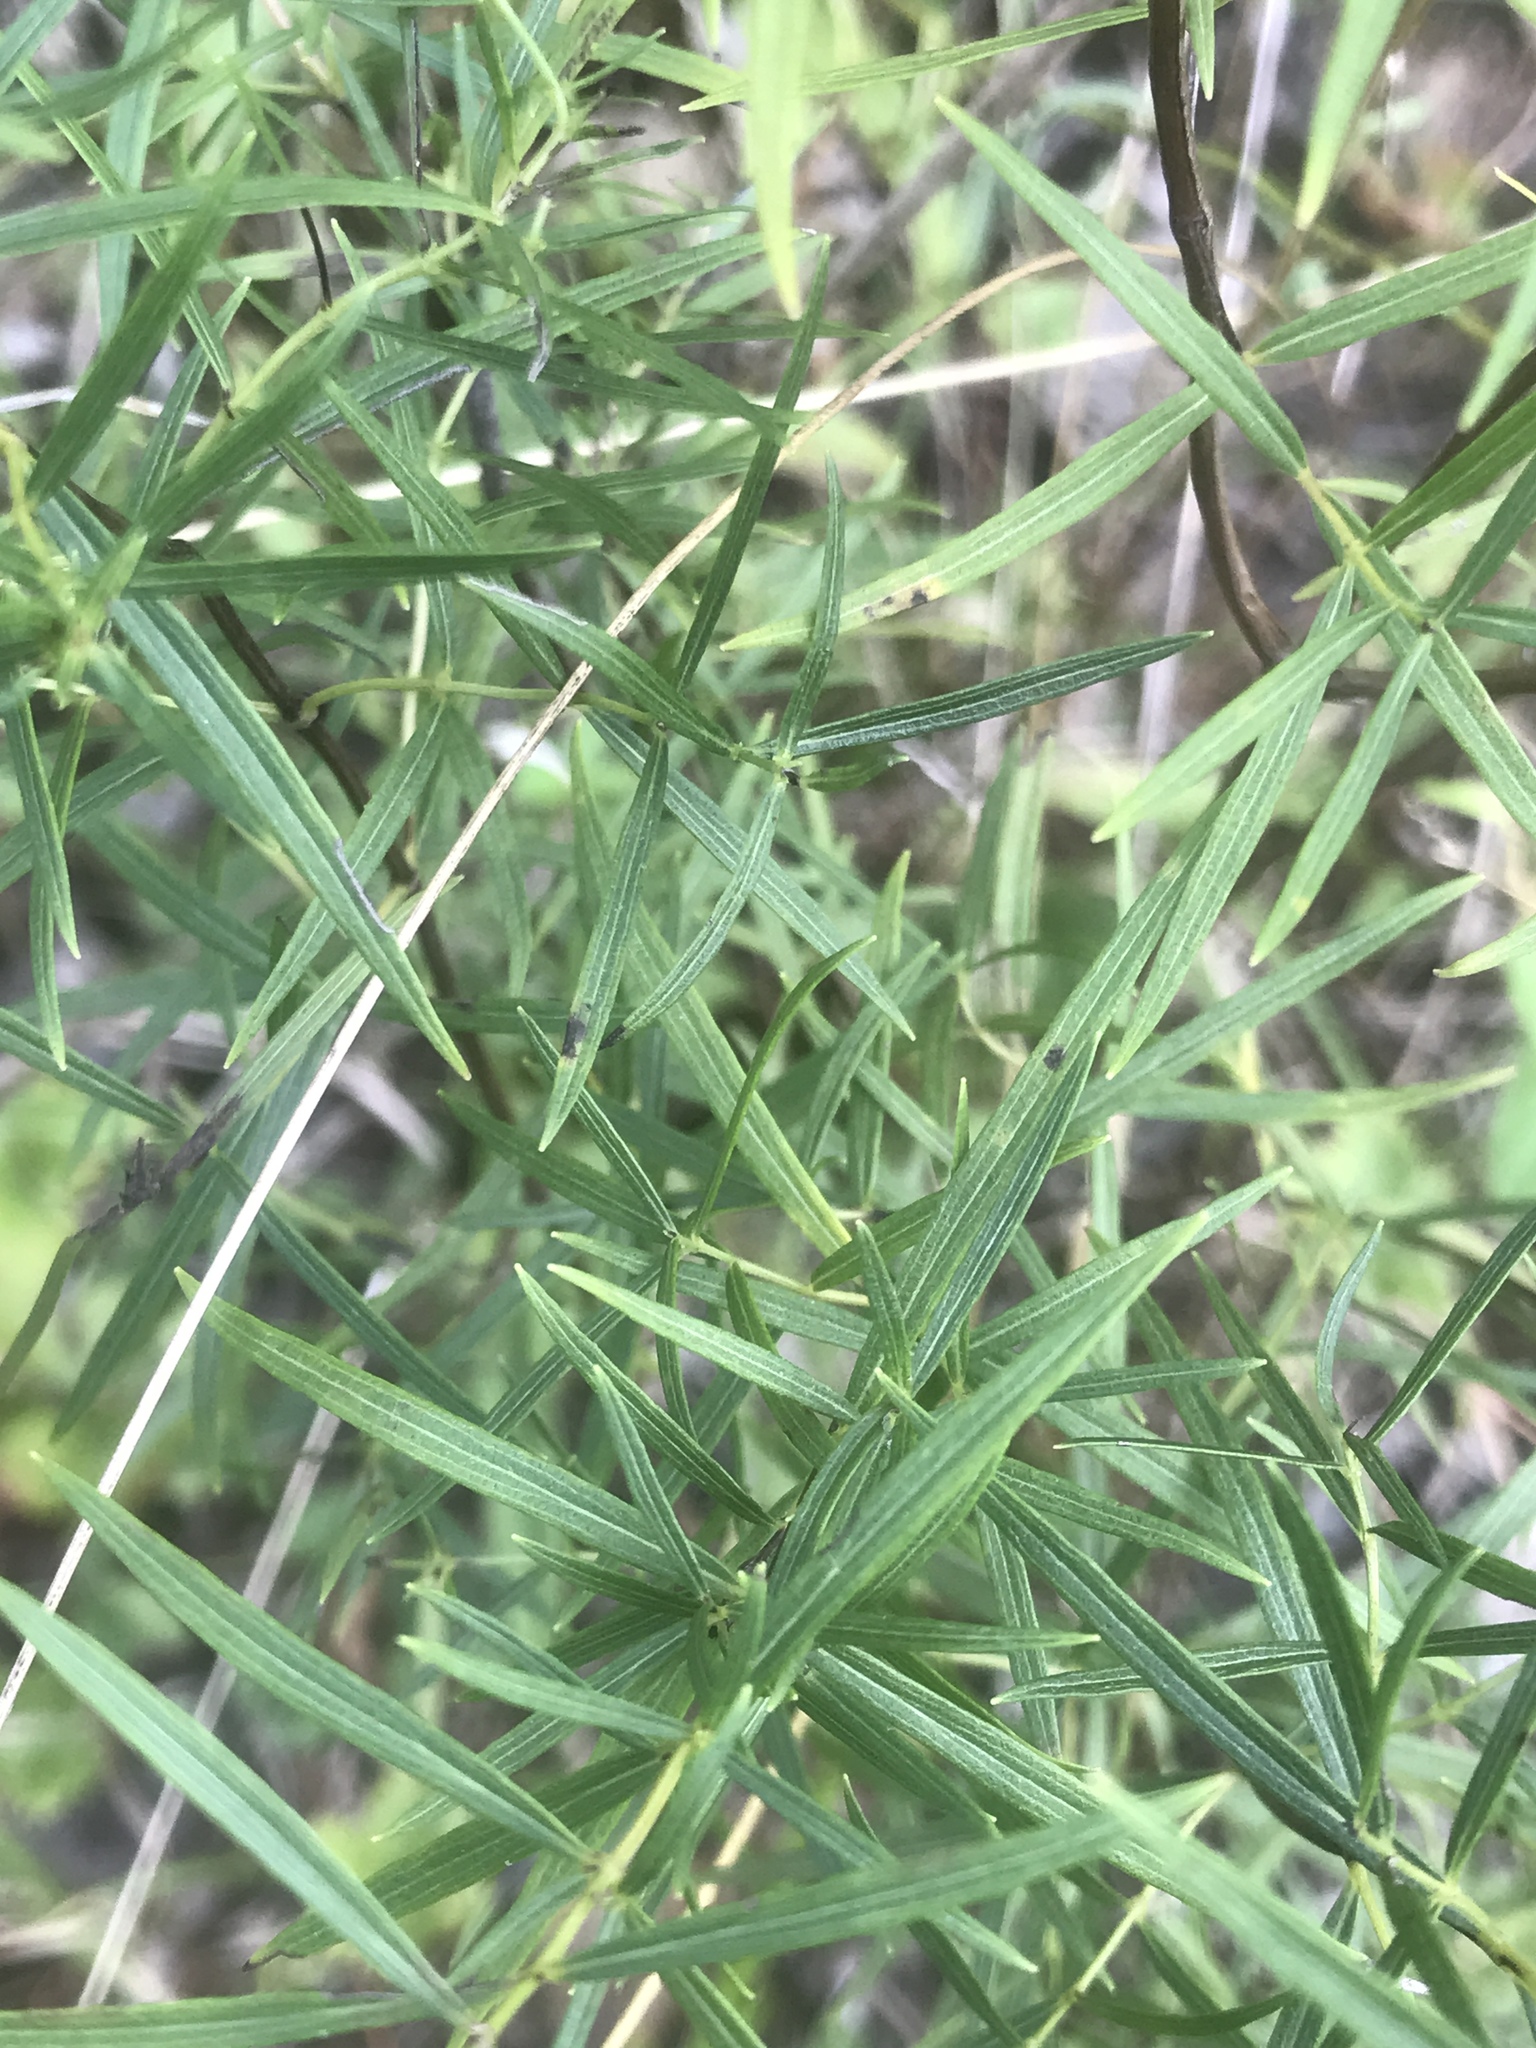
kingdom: Plantae
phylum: Tracheophyta
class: Magnoliopsida
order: Lamiales
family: Lamiaceae
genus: Pycnanthemum
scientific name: Pycnanthemum tenuifolium
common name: Narrow-leaf mountain-mint
